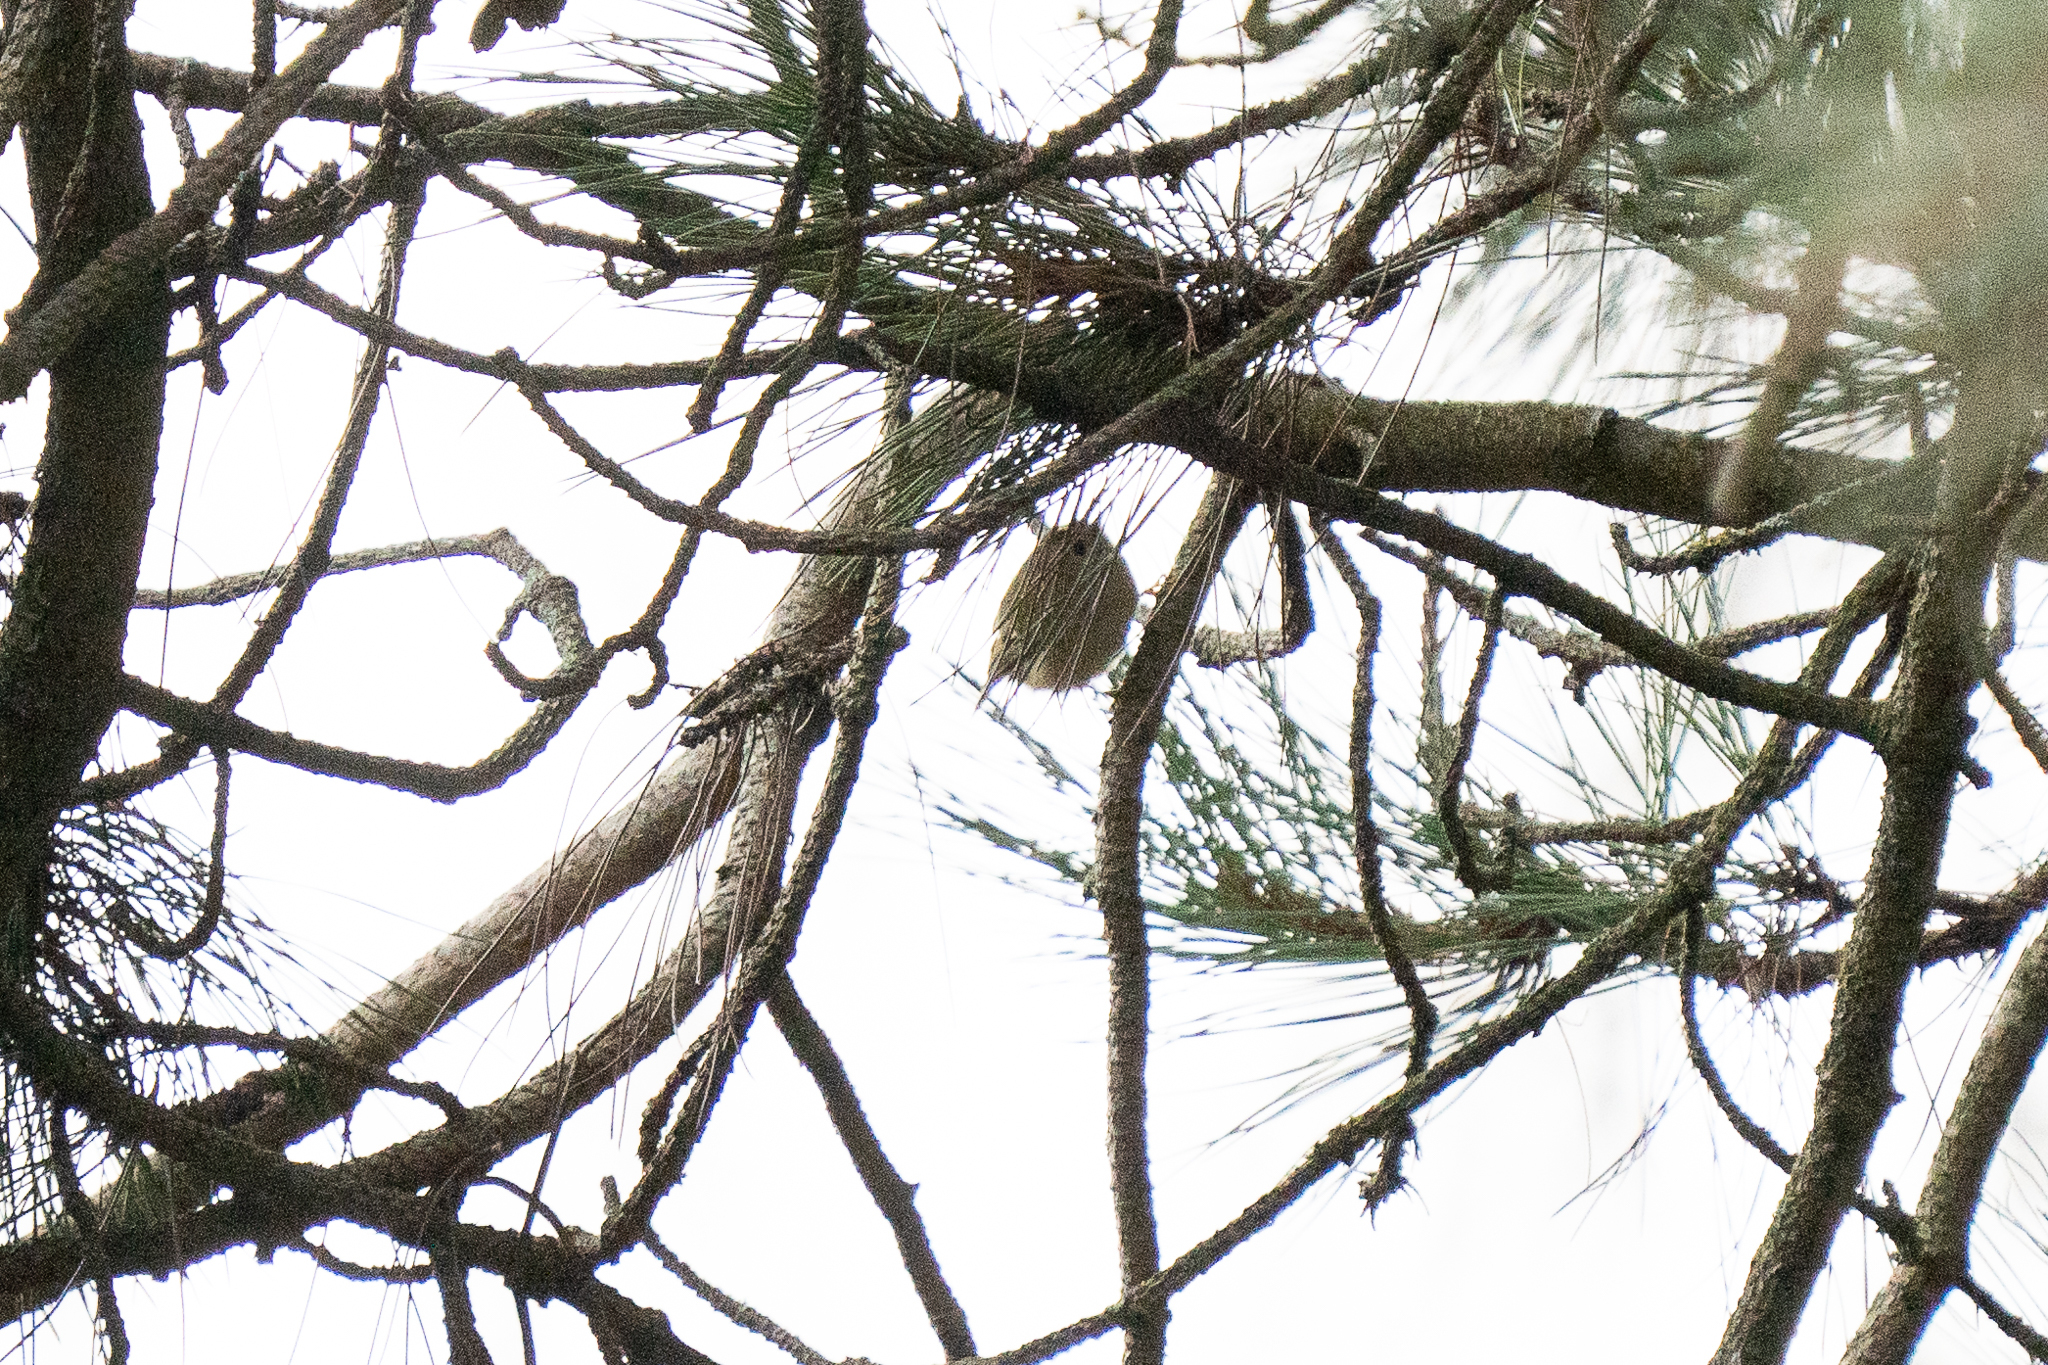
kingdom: Animalia
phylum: Chordata
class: Aves
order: Passeriformes
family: Regulidae
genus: Regulus
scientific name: Regulus regulus
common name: Goldcrest
